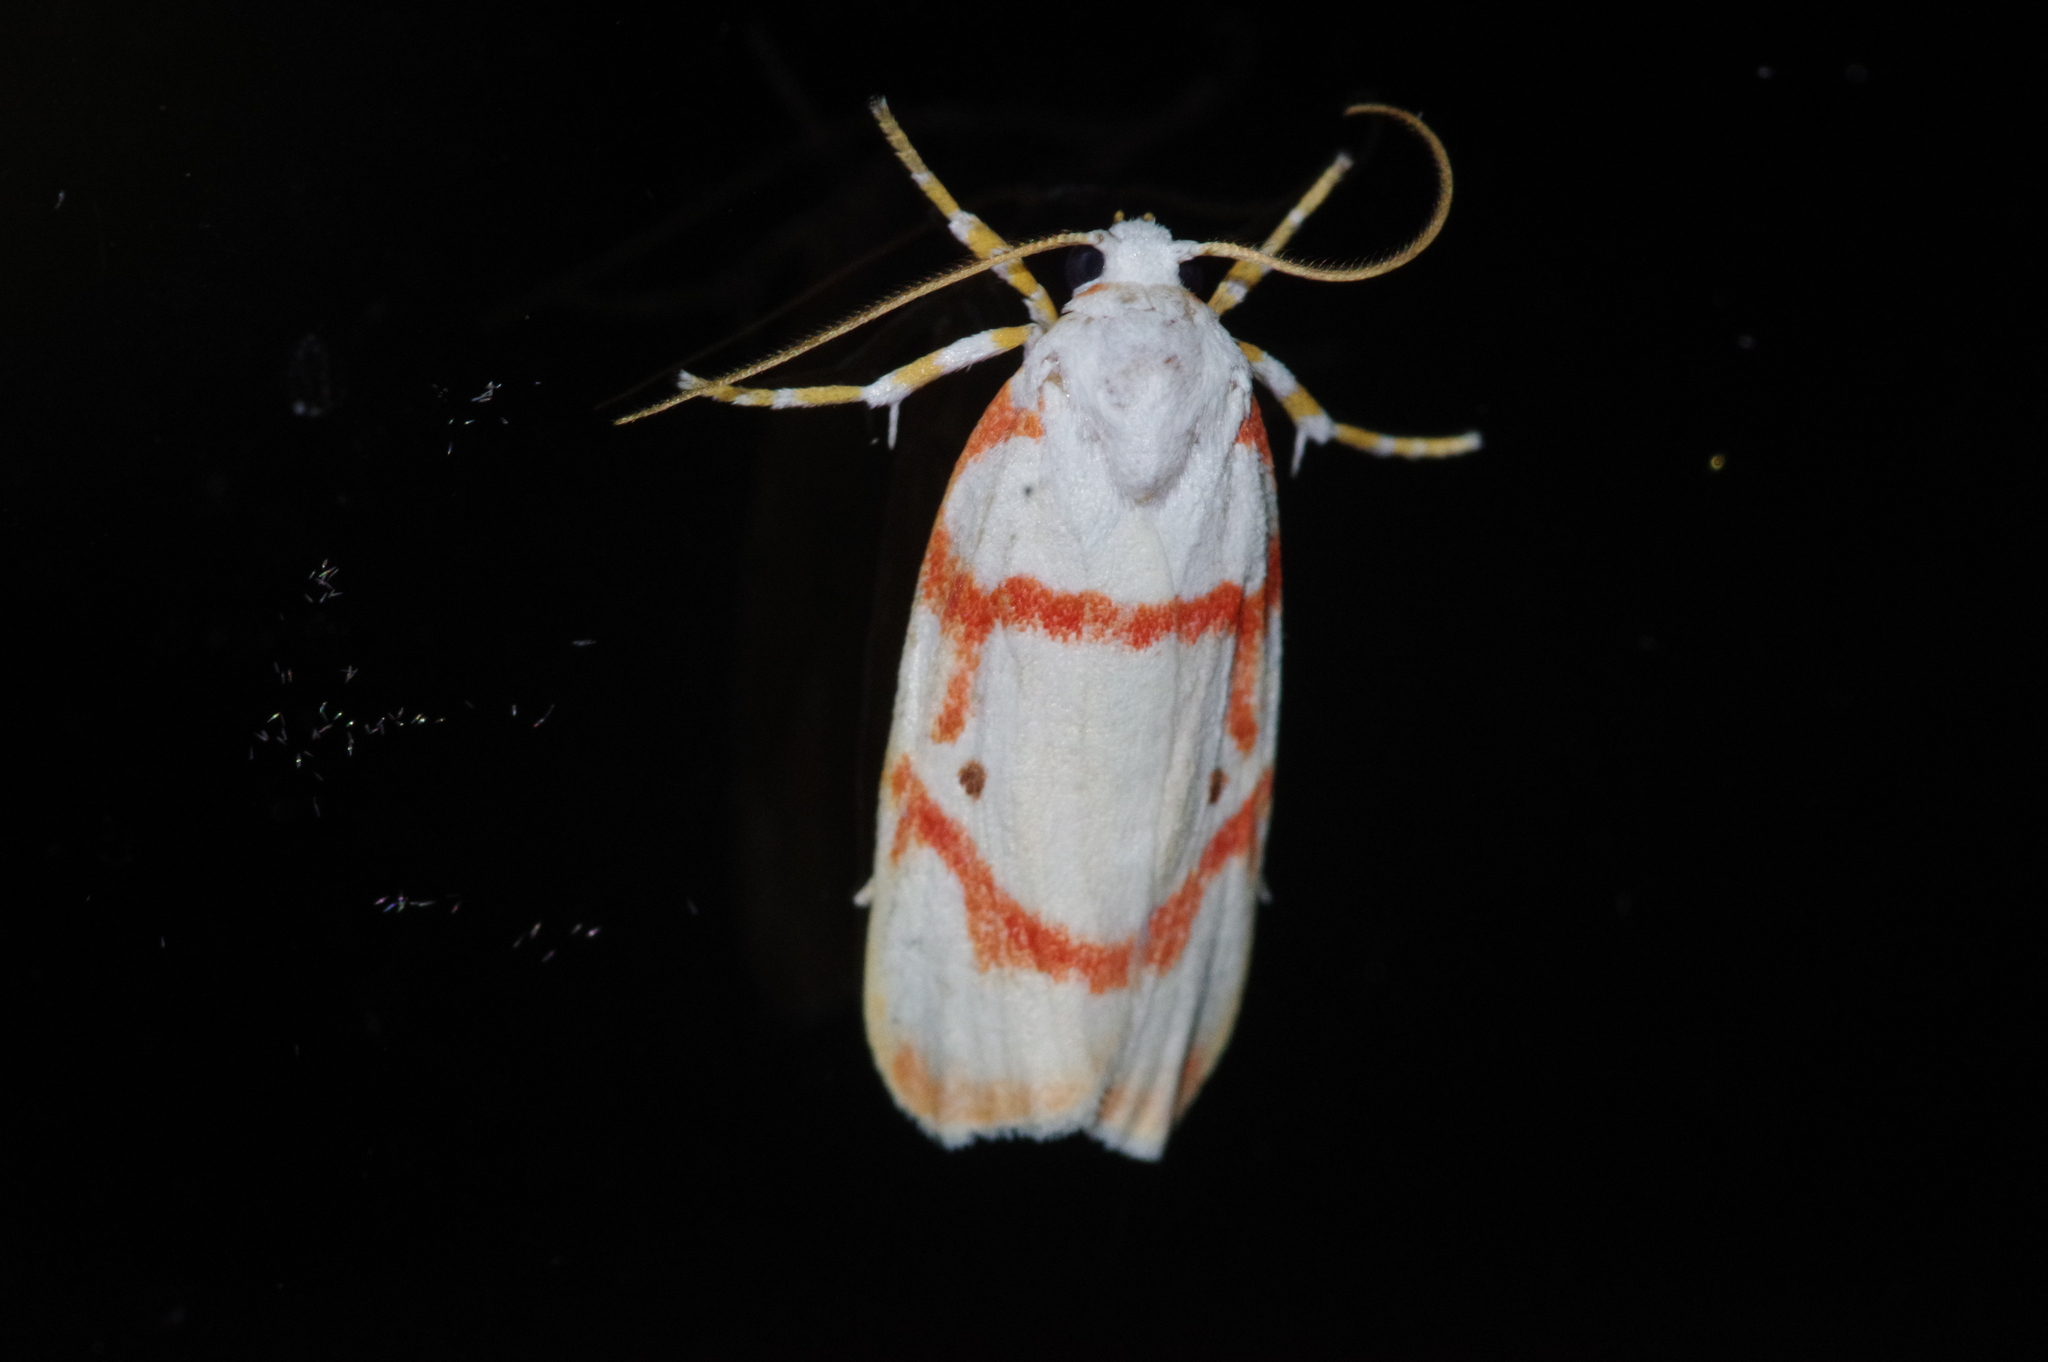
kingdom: Animalia
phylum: Arthropoda
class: Insecta
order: Lepidoptera
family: Erebidae
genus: Cyana
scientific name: Cyana unipuncta
